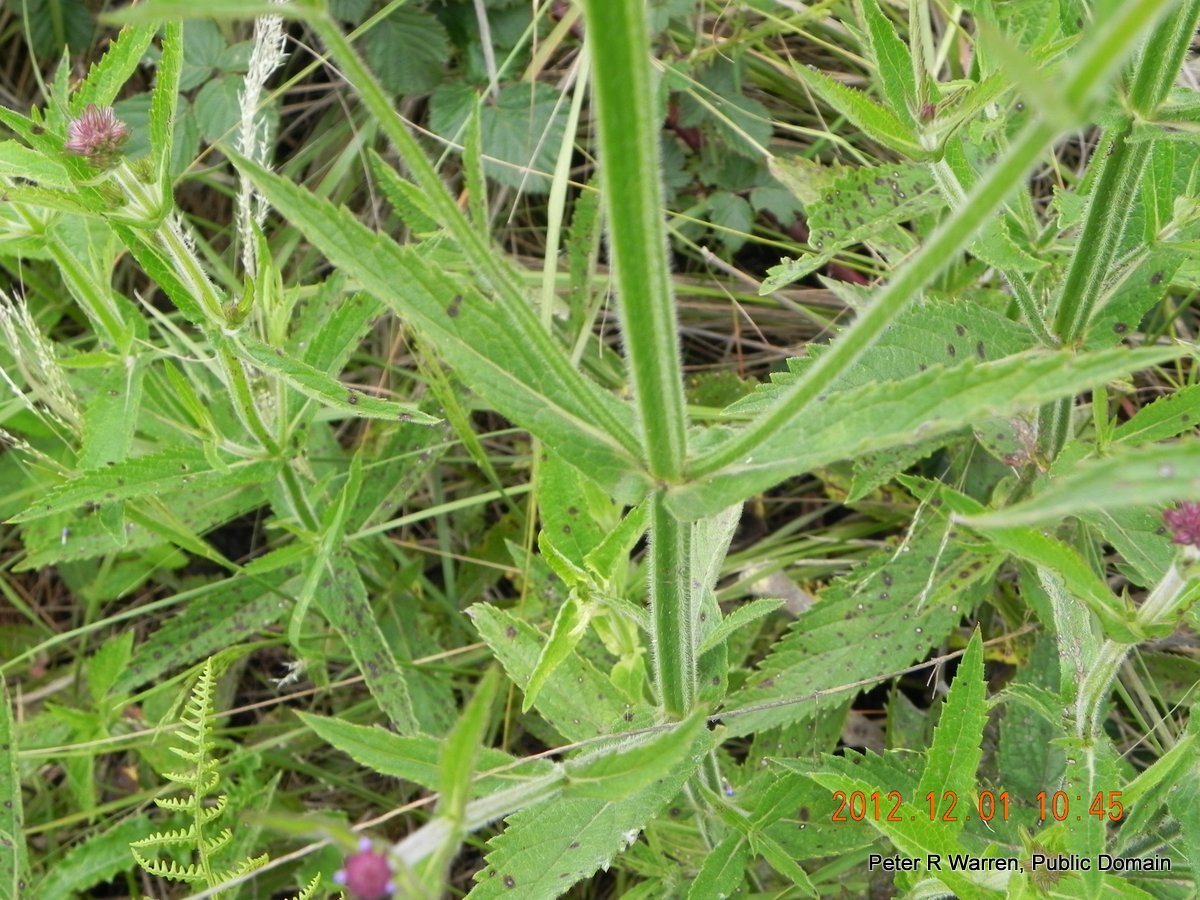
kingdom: Plantae
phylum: Tracheophyta
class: Magnoliopsida
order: Lamiales
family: Verbenaceae
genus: Verbena
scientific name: Verbena bonariensis
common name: Purpletop vervain
